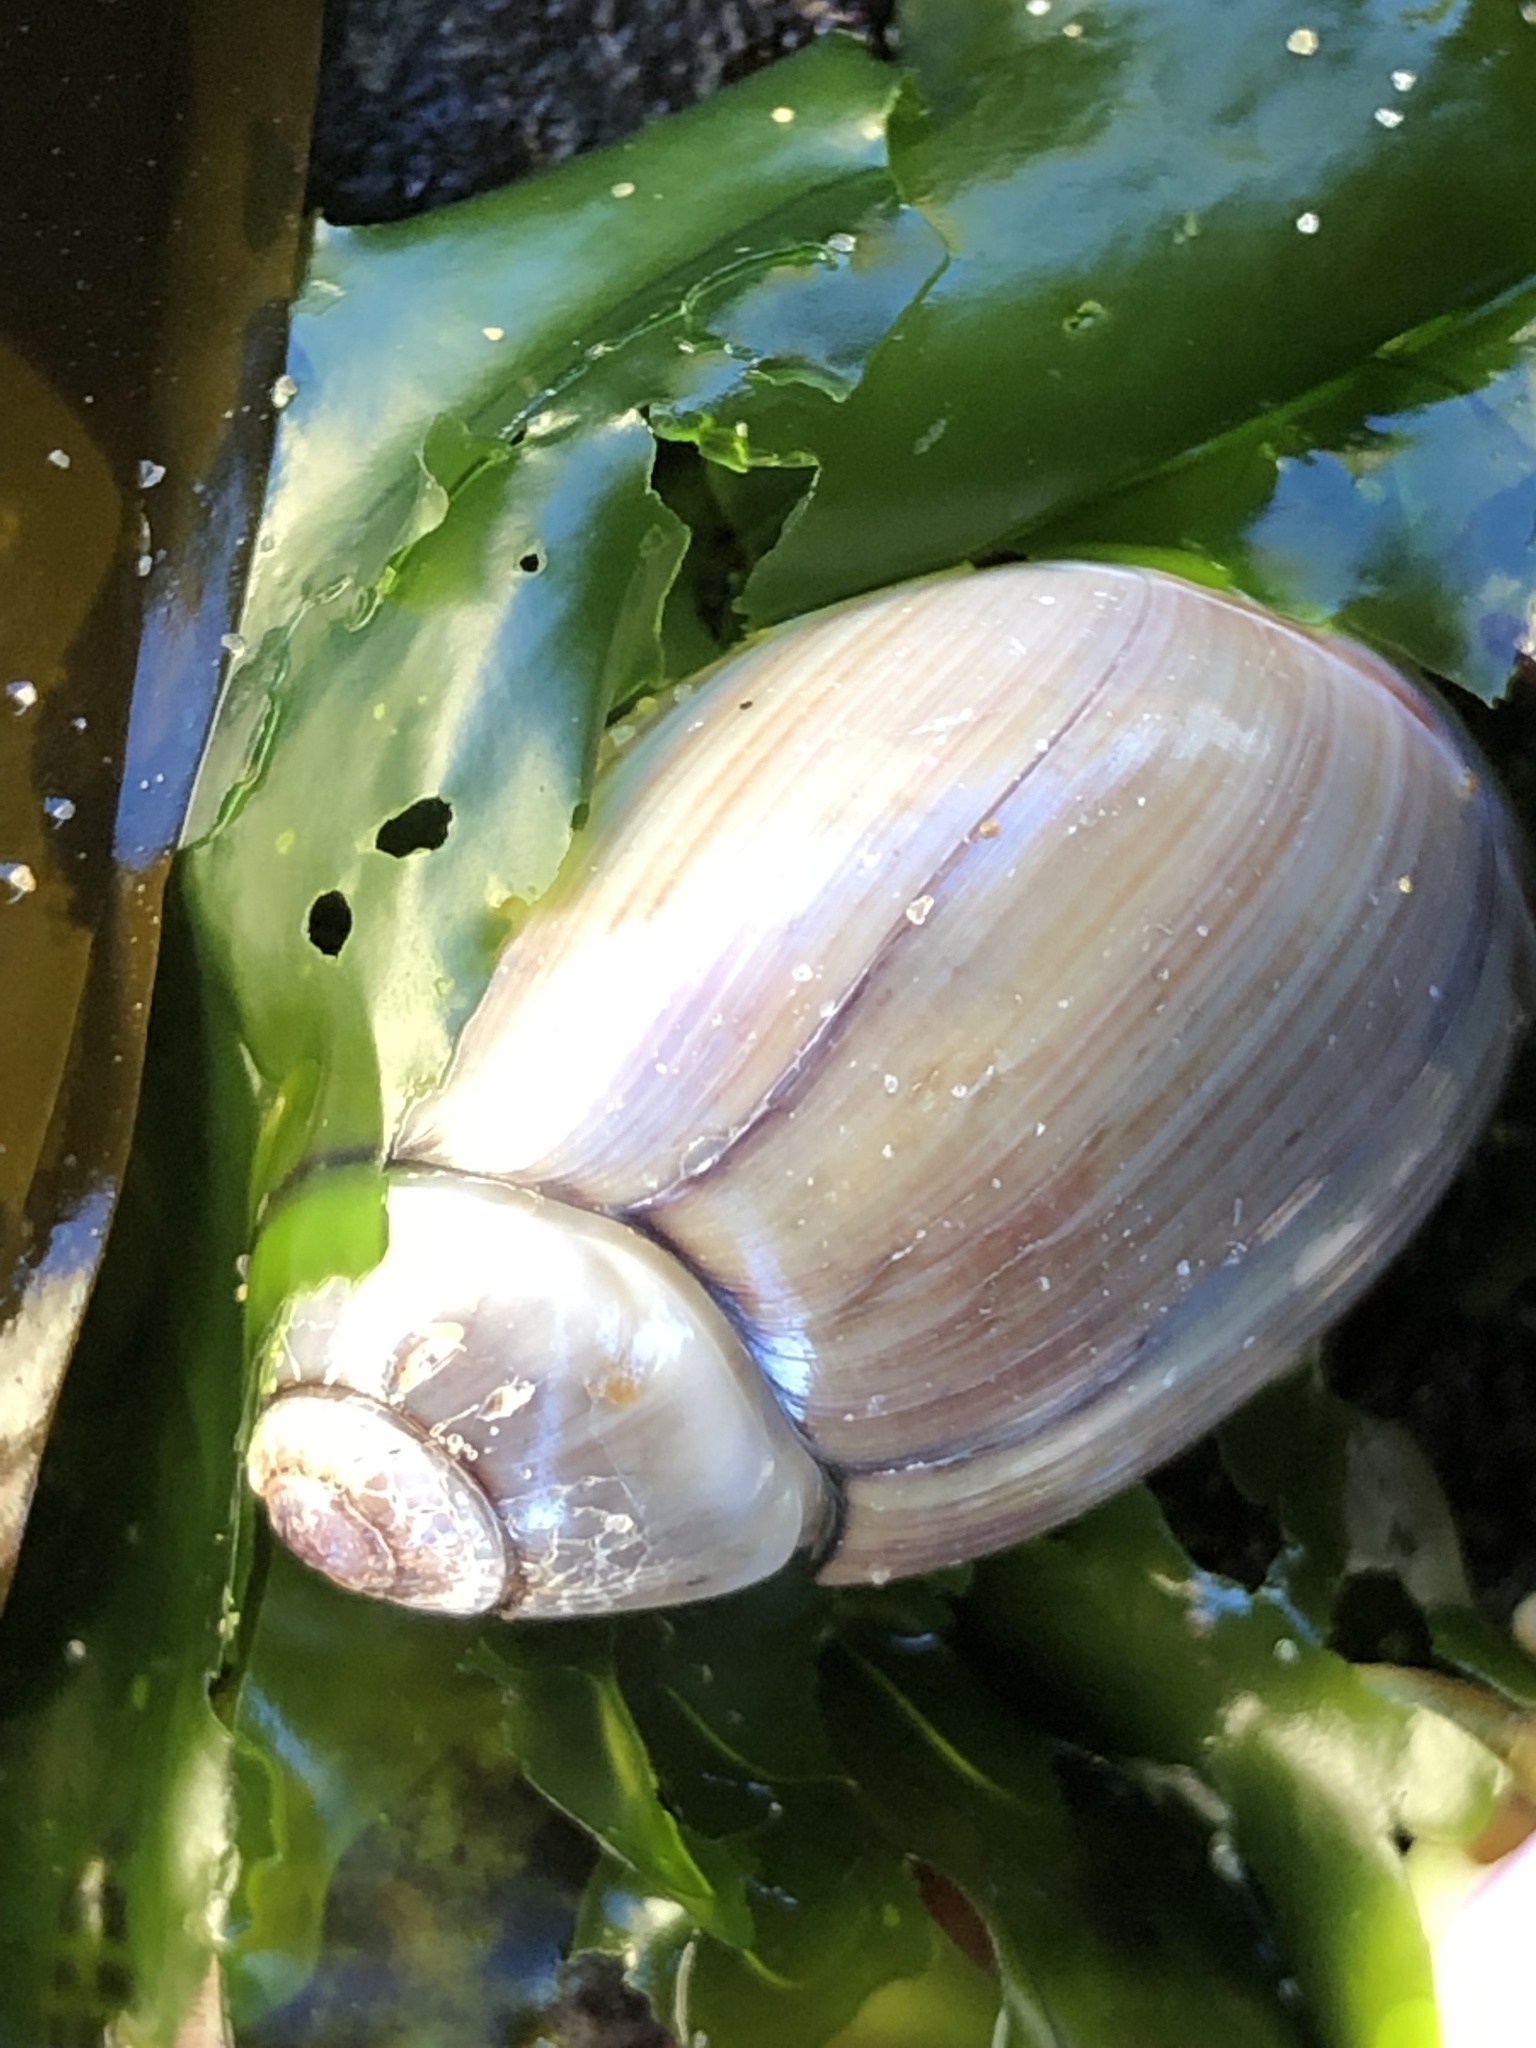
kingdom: Animalia
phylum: Mollusca
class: Gastropoda
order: Neogastropoda
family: Olividae
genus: Callianax
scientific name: Callianax biplicata
